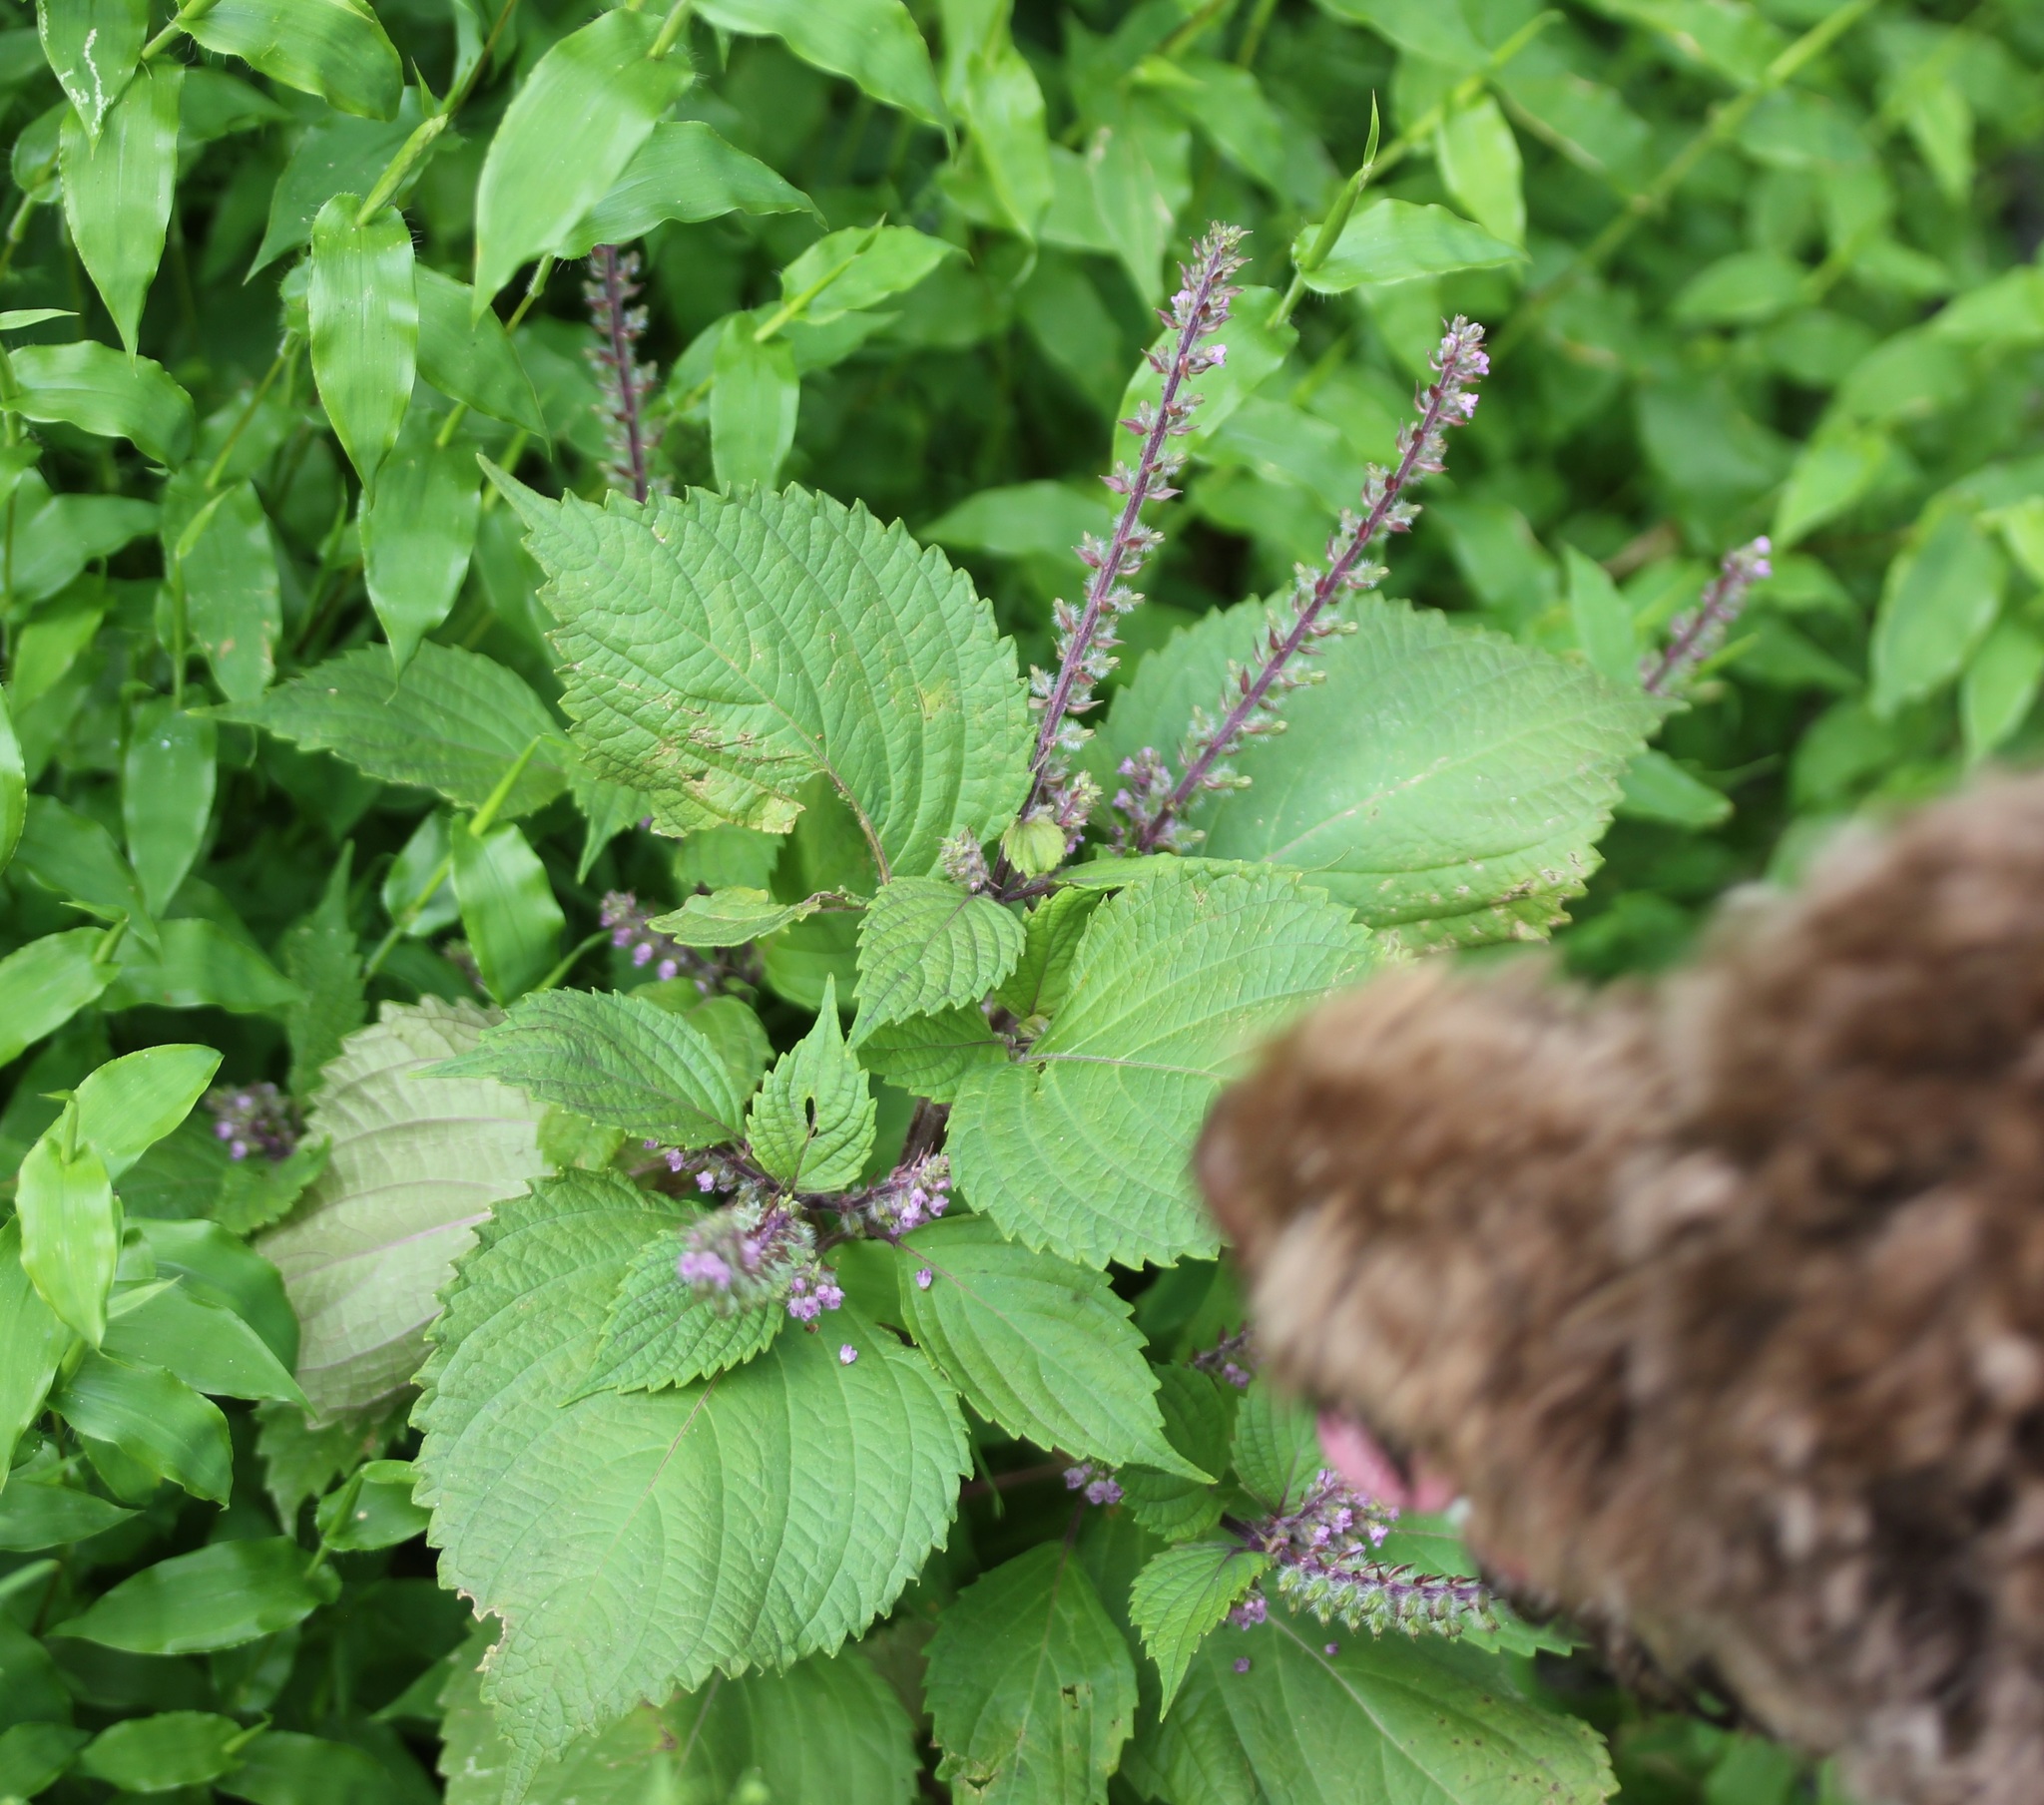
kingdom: Plantae
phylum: Tracheophyta
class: Magnoliopsida
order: Lamiales
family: Lamiaceae
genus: Perilla
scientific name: Perilla frutescens
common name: Perilla
